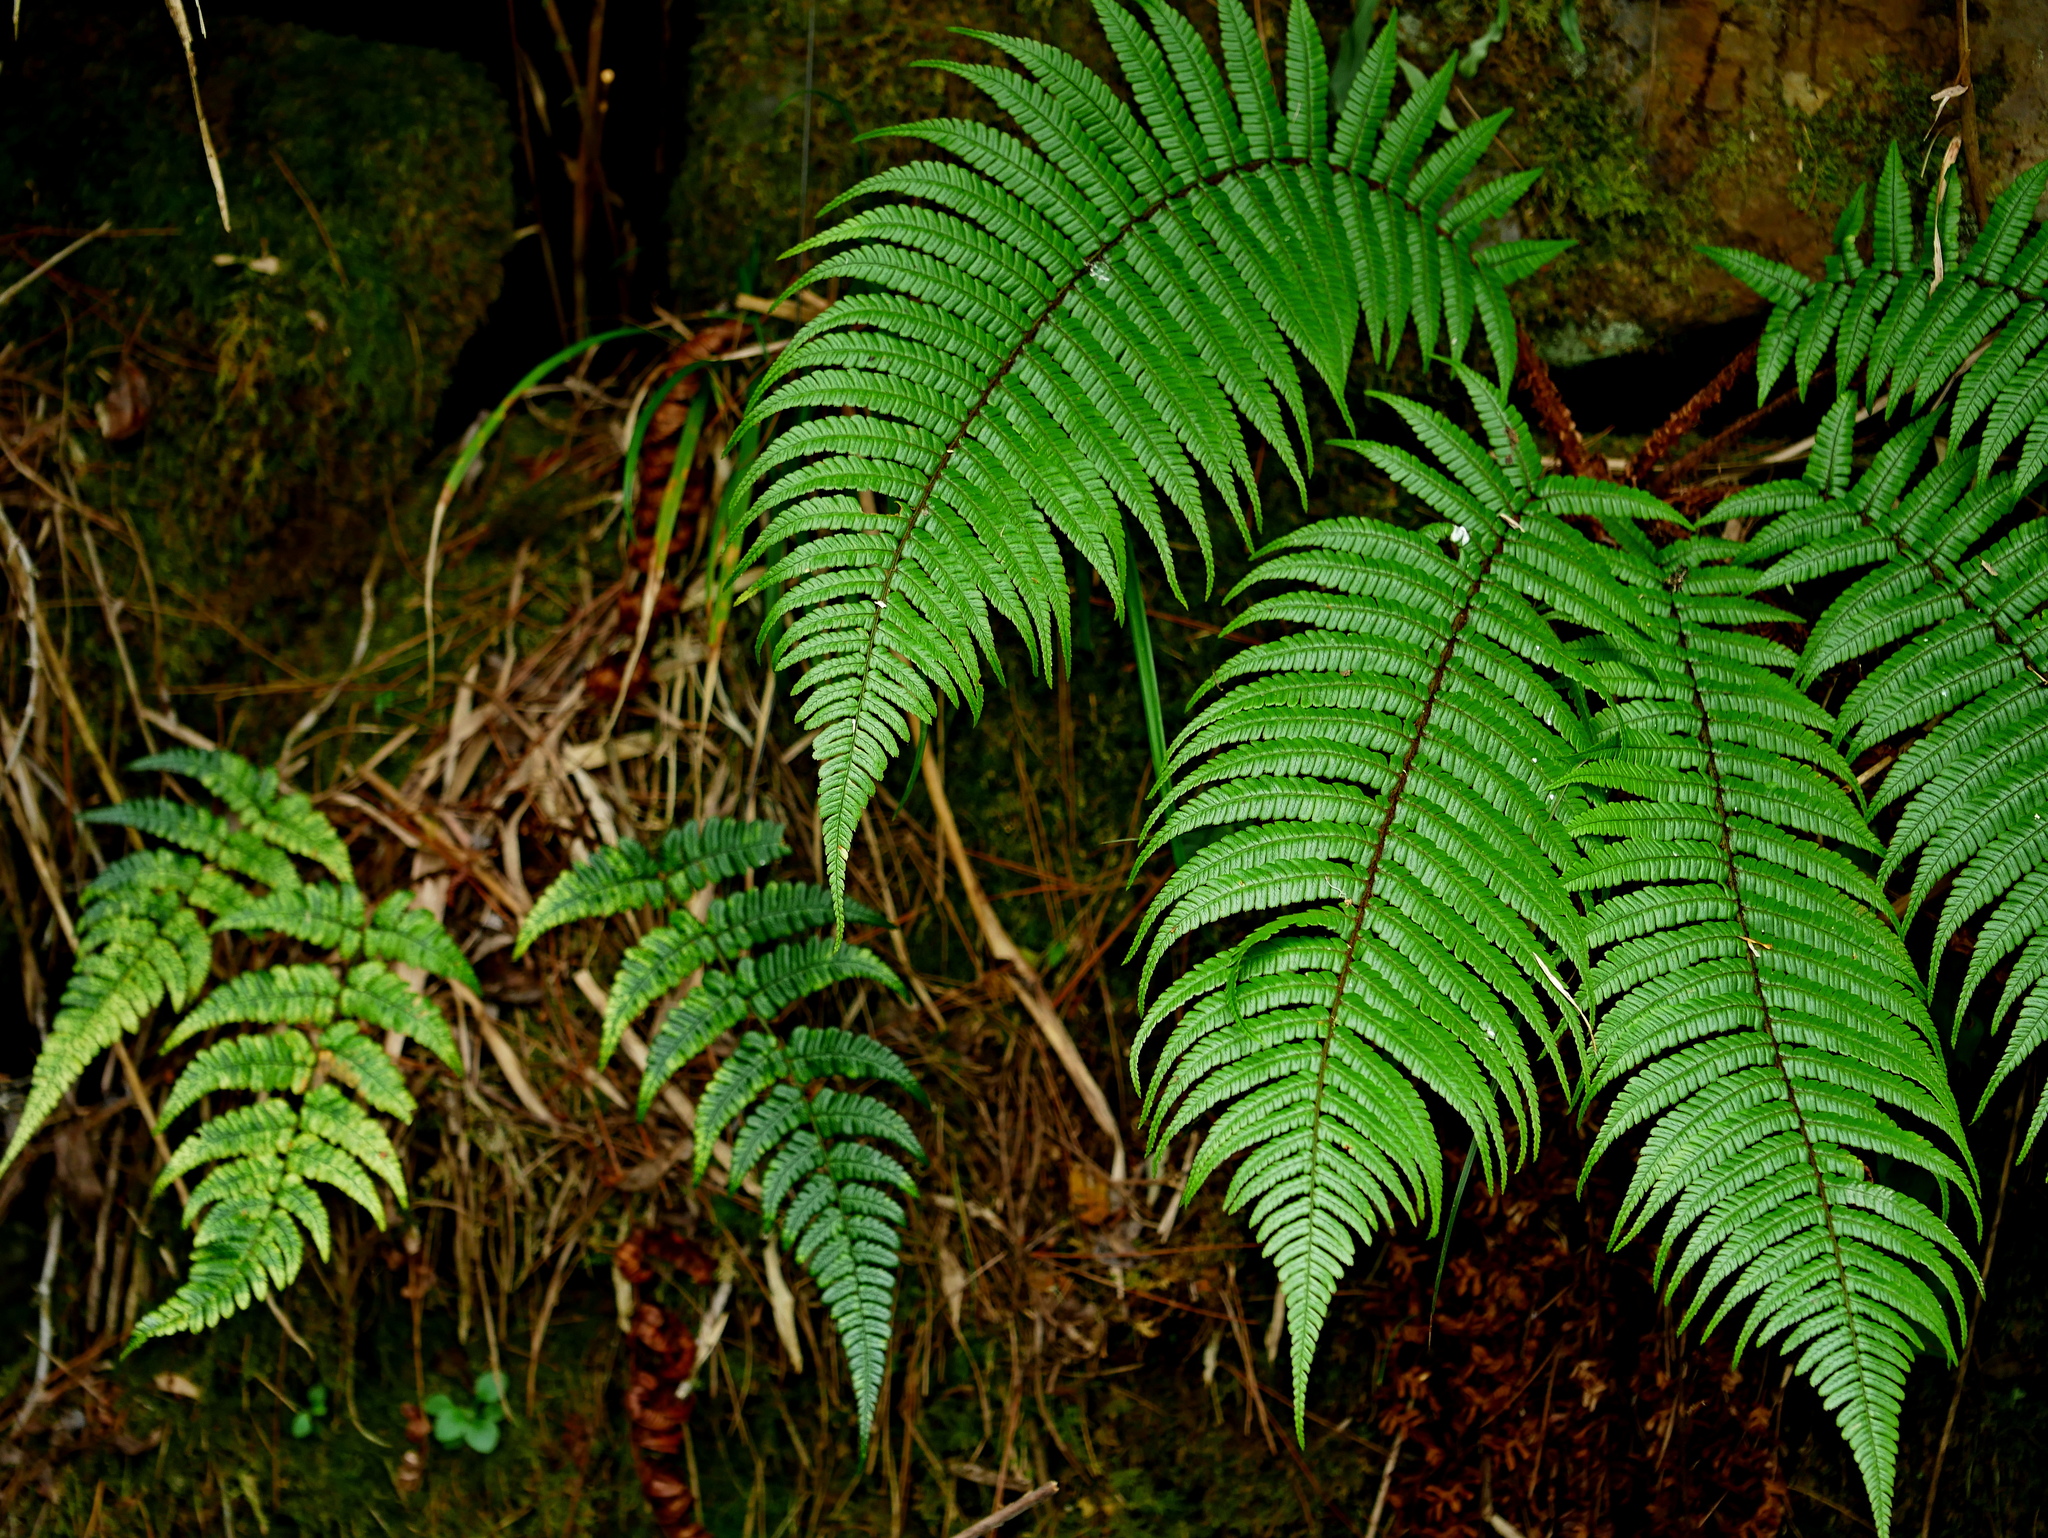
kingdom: Plantae
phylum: Tracheophyta
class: Polypodiopsida
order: Polypodiales
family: Dryopteridaceae
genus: Dryopteris
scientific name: Dryopteris redactopinnata
